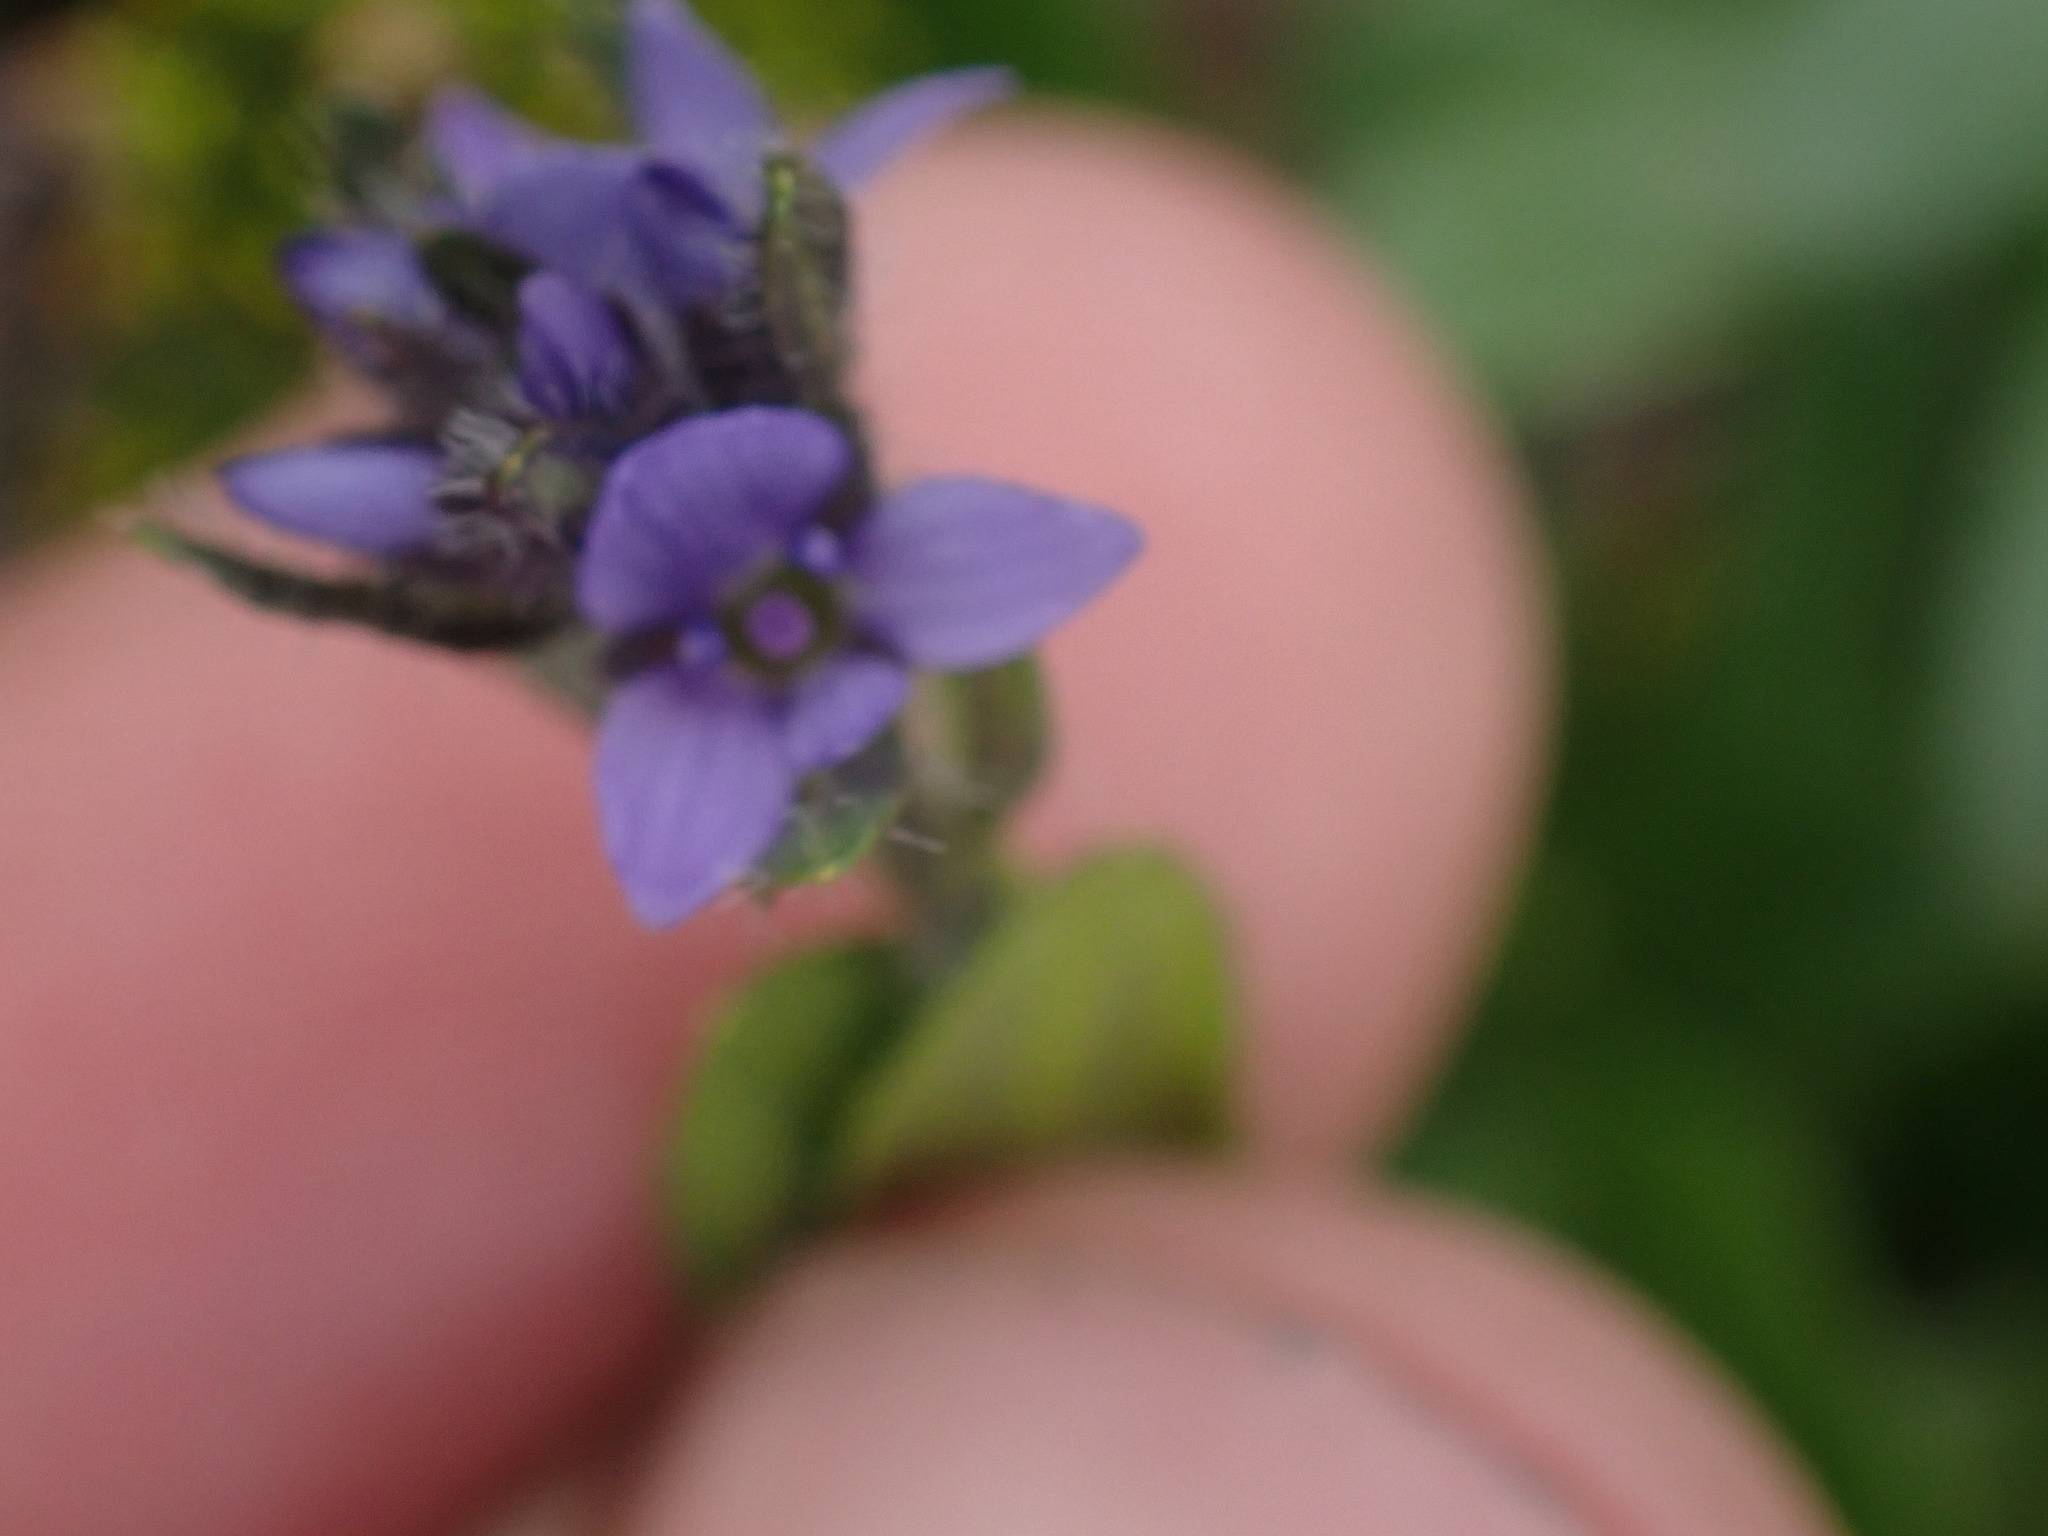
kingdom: Plantae
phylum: Tracheophyta
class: Magnoliopsida
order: Lamiales
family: Plantaginaceae
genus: Veronica
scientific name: Veronica wormskjoldii
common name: American alpine speedwell
